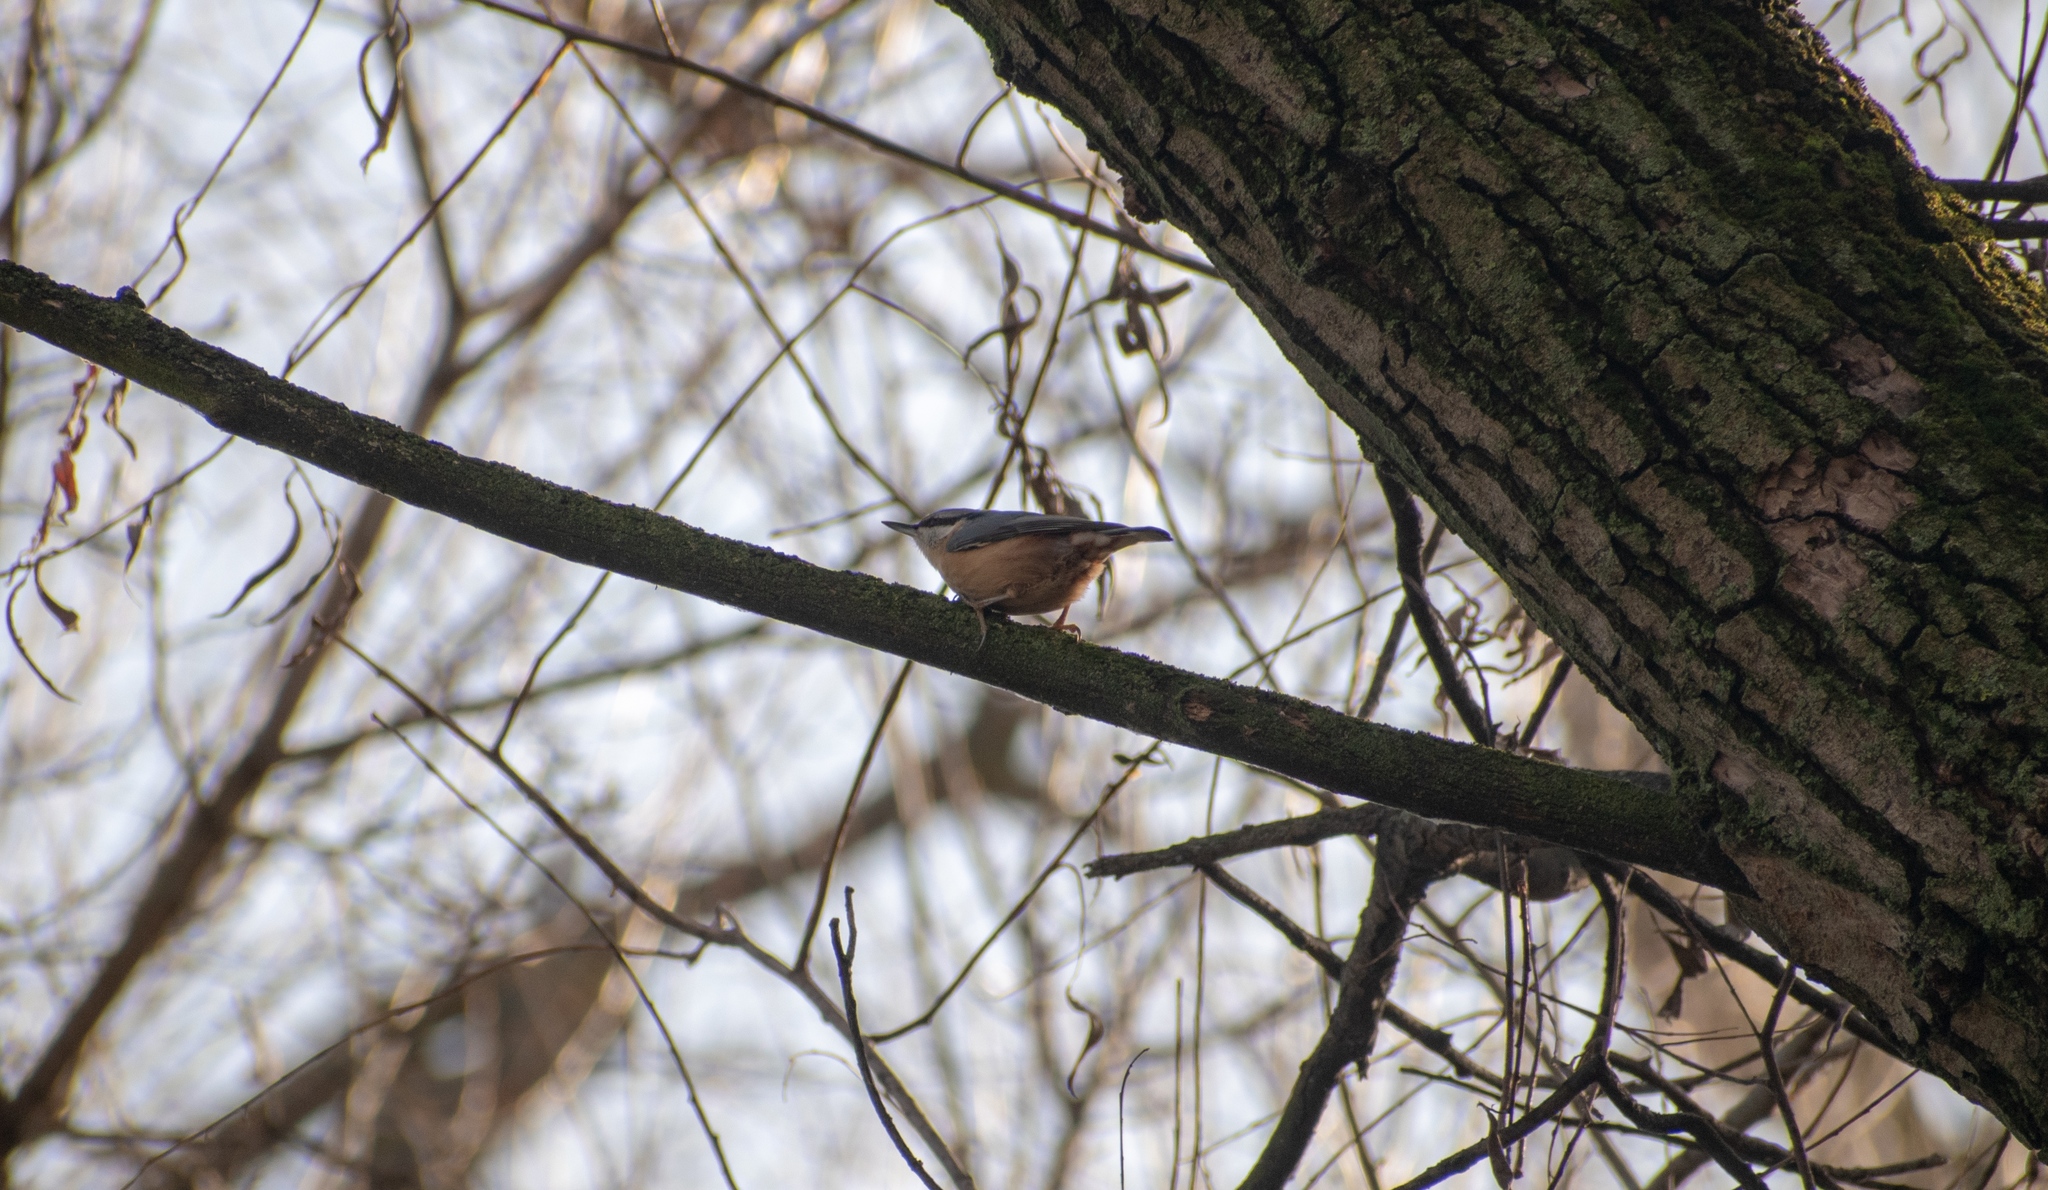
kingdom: Animalia
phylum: Chordata
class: Aves
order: Passeriformes
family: Sittidae
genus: Sitta
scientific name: Sitta europaea
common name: Eurasian nuthatch
